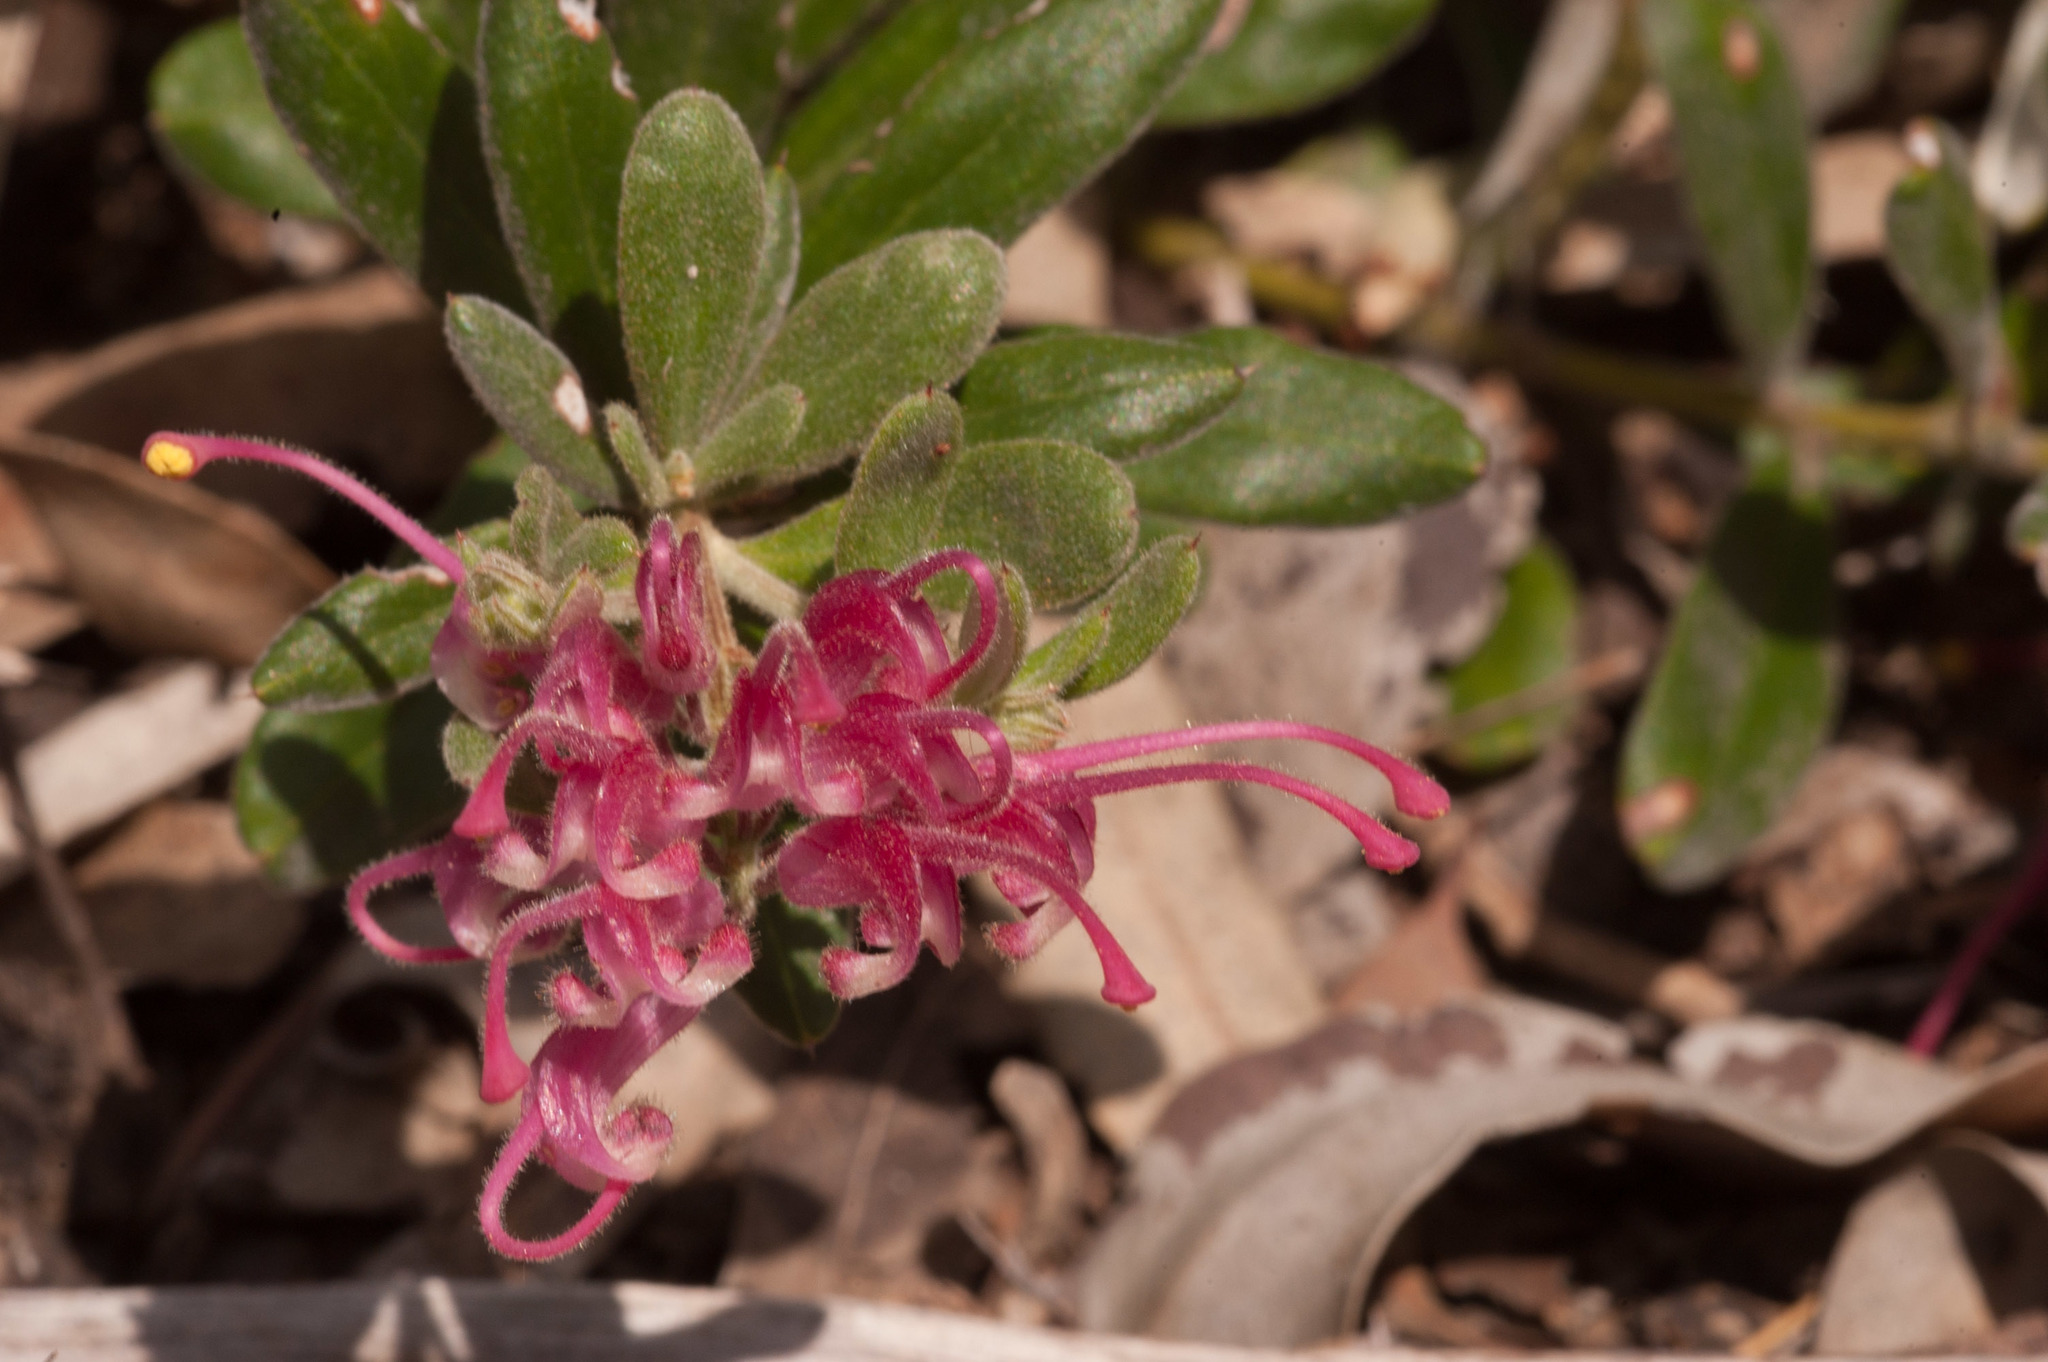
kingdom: Plantae
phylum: Tracheophyta
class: Magnoliopsida
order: Proteales
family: Proteaceae
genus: Grevillea
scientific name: Grevillea lavandulacea
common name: Lavender grevillea
